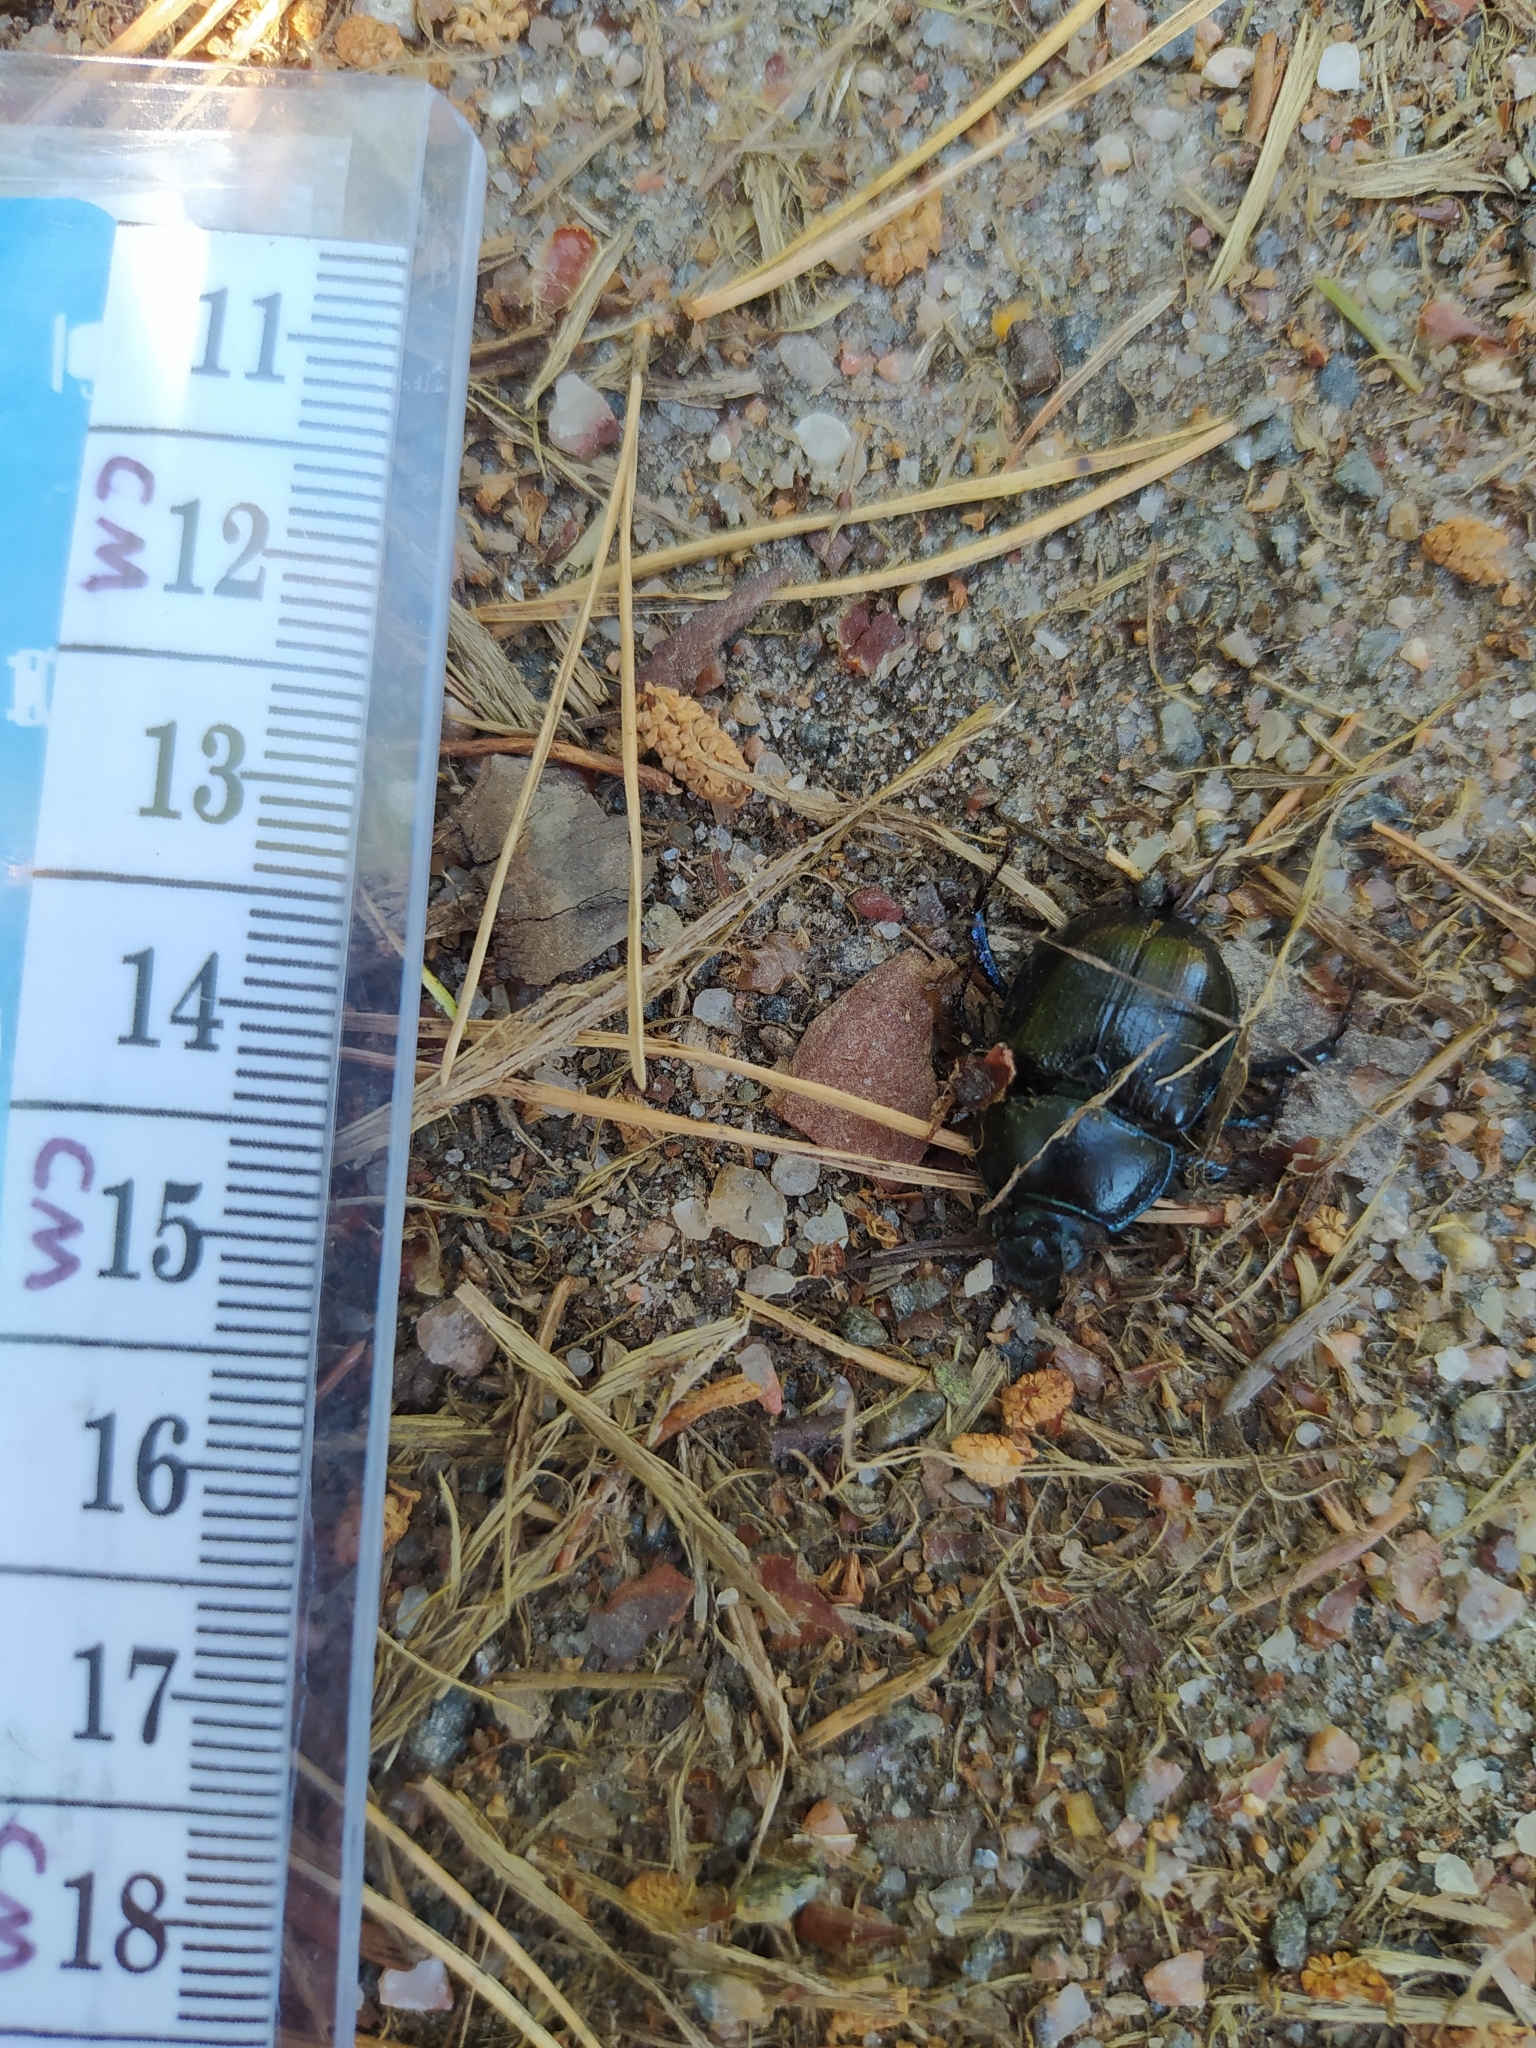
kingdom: Animalia
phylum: Arthropoda
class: Insecta
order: Coleoptera
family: Geotrupidae
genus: Anoplotrupes
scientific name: Anoplotrupes stercorosus
